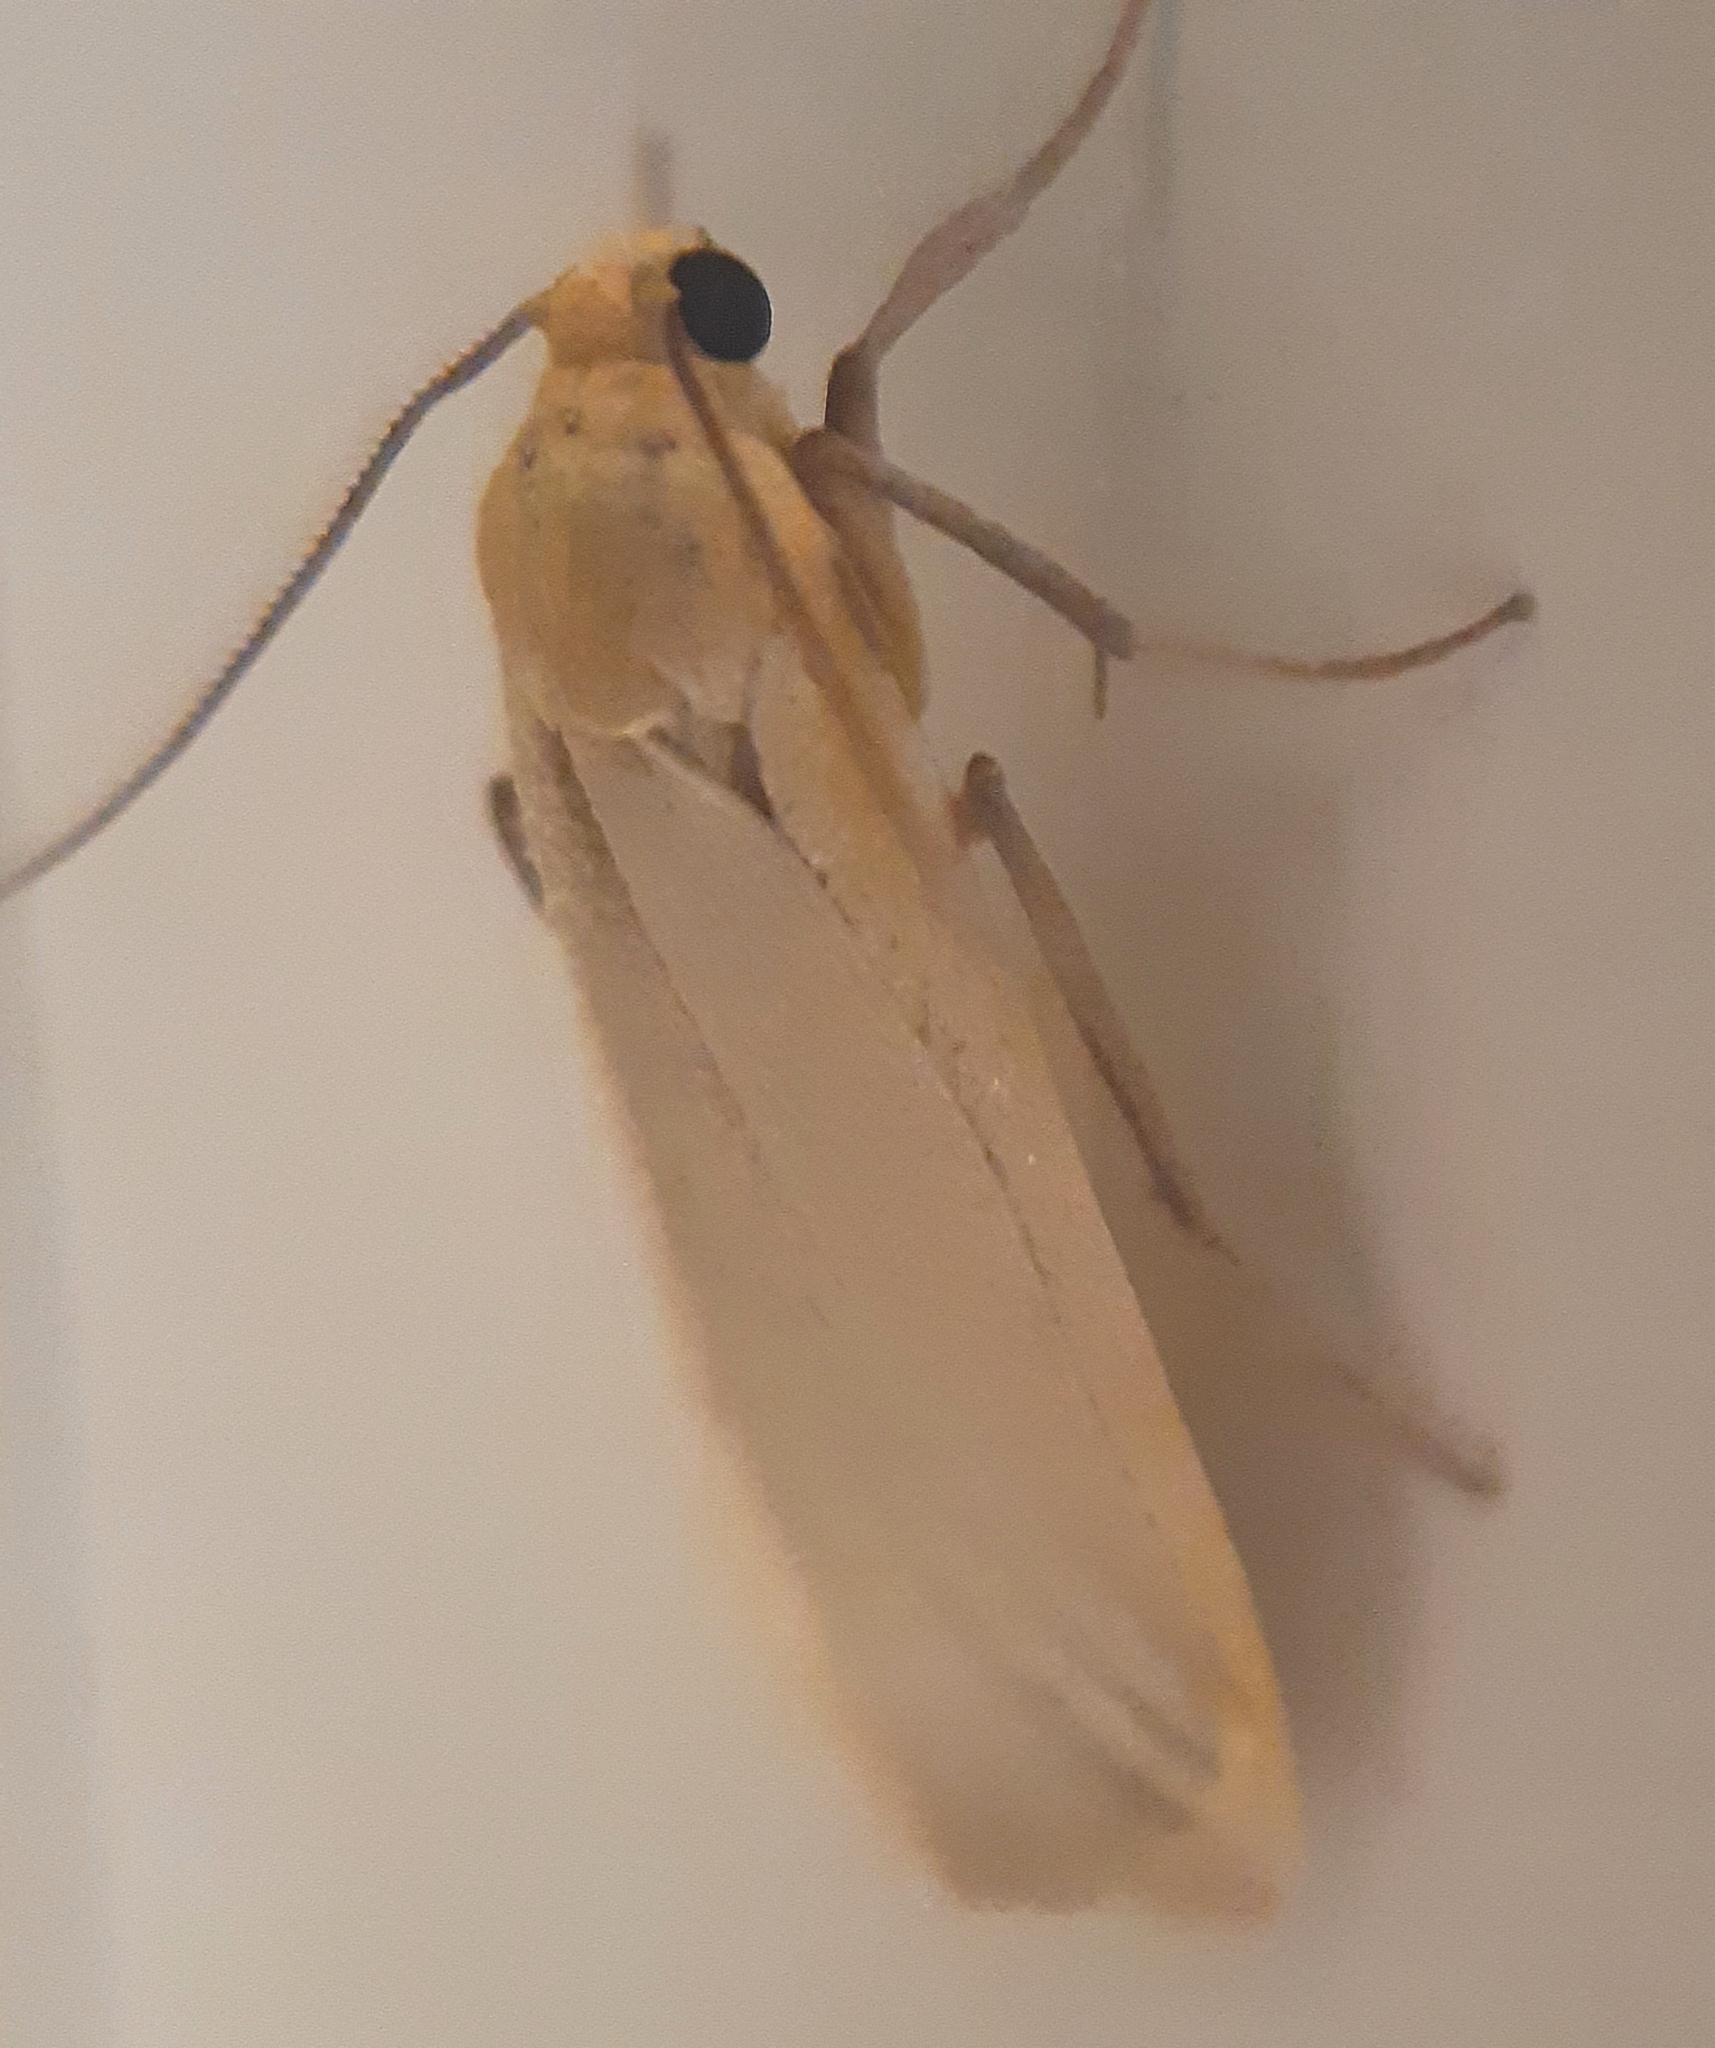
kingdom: Animalia
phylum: Arthropoda
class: Insecta
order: Lepidoptera
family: Erebidae
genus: Katha
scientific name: Katha depressa
